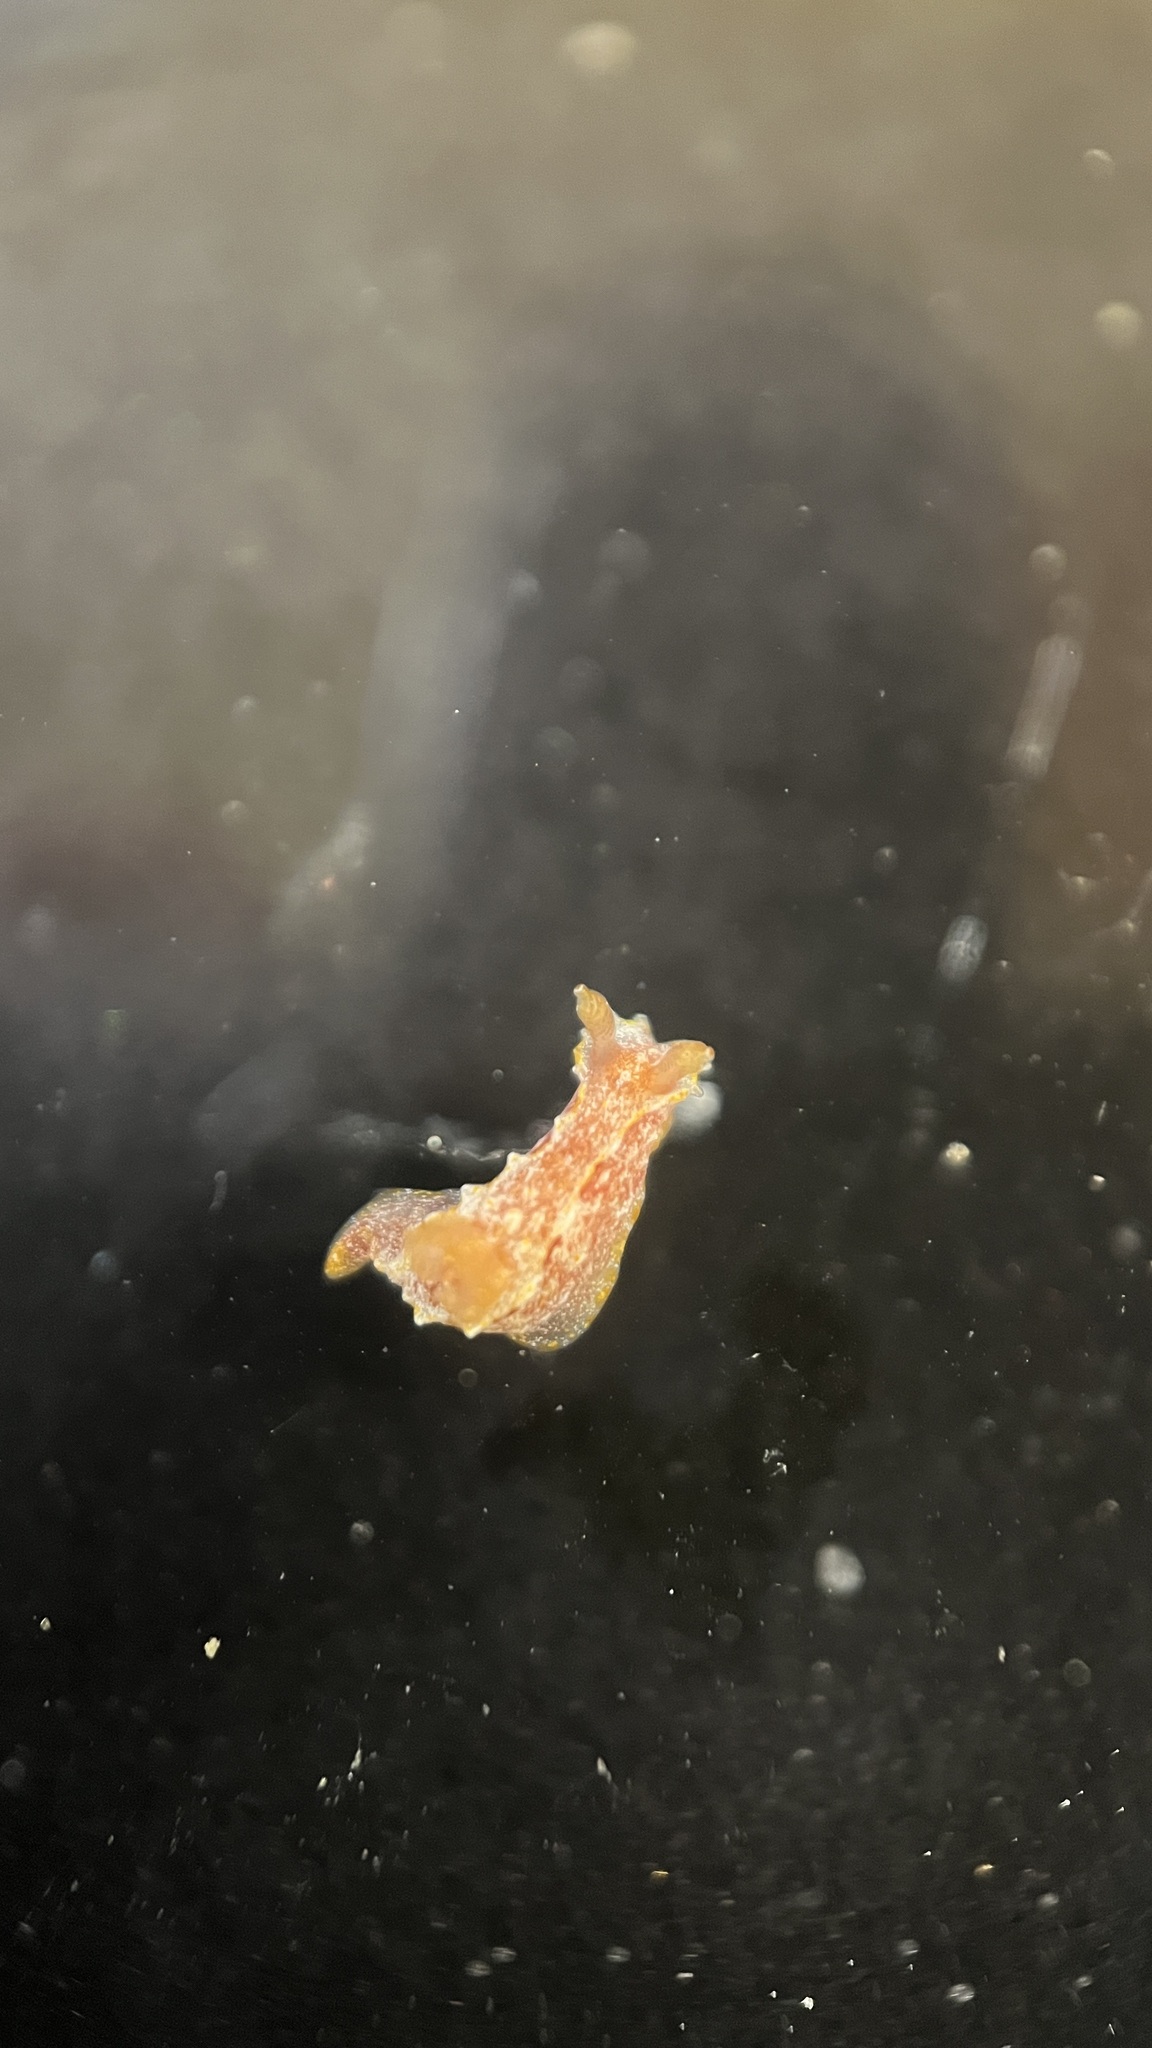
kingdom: Animalia
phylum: Mollusca
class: Gastropoda
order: Nudibranchia
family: Polyceridae
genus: Polycera
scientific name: Polycera parvula
